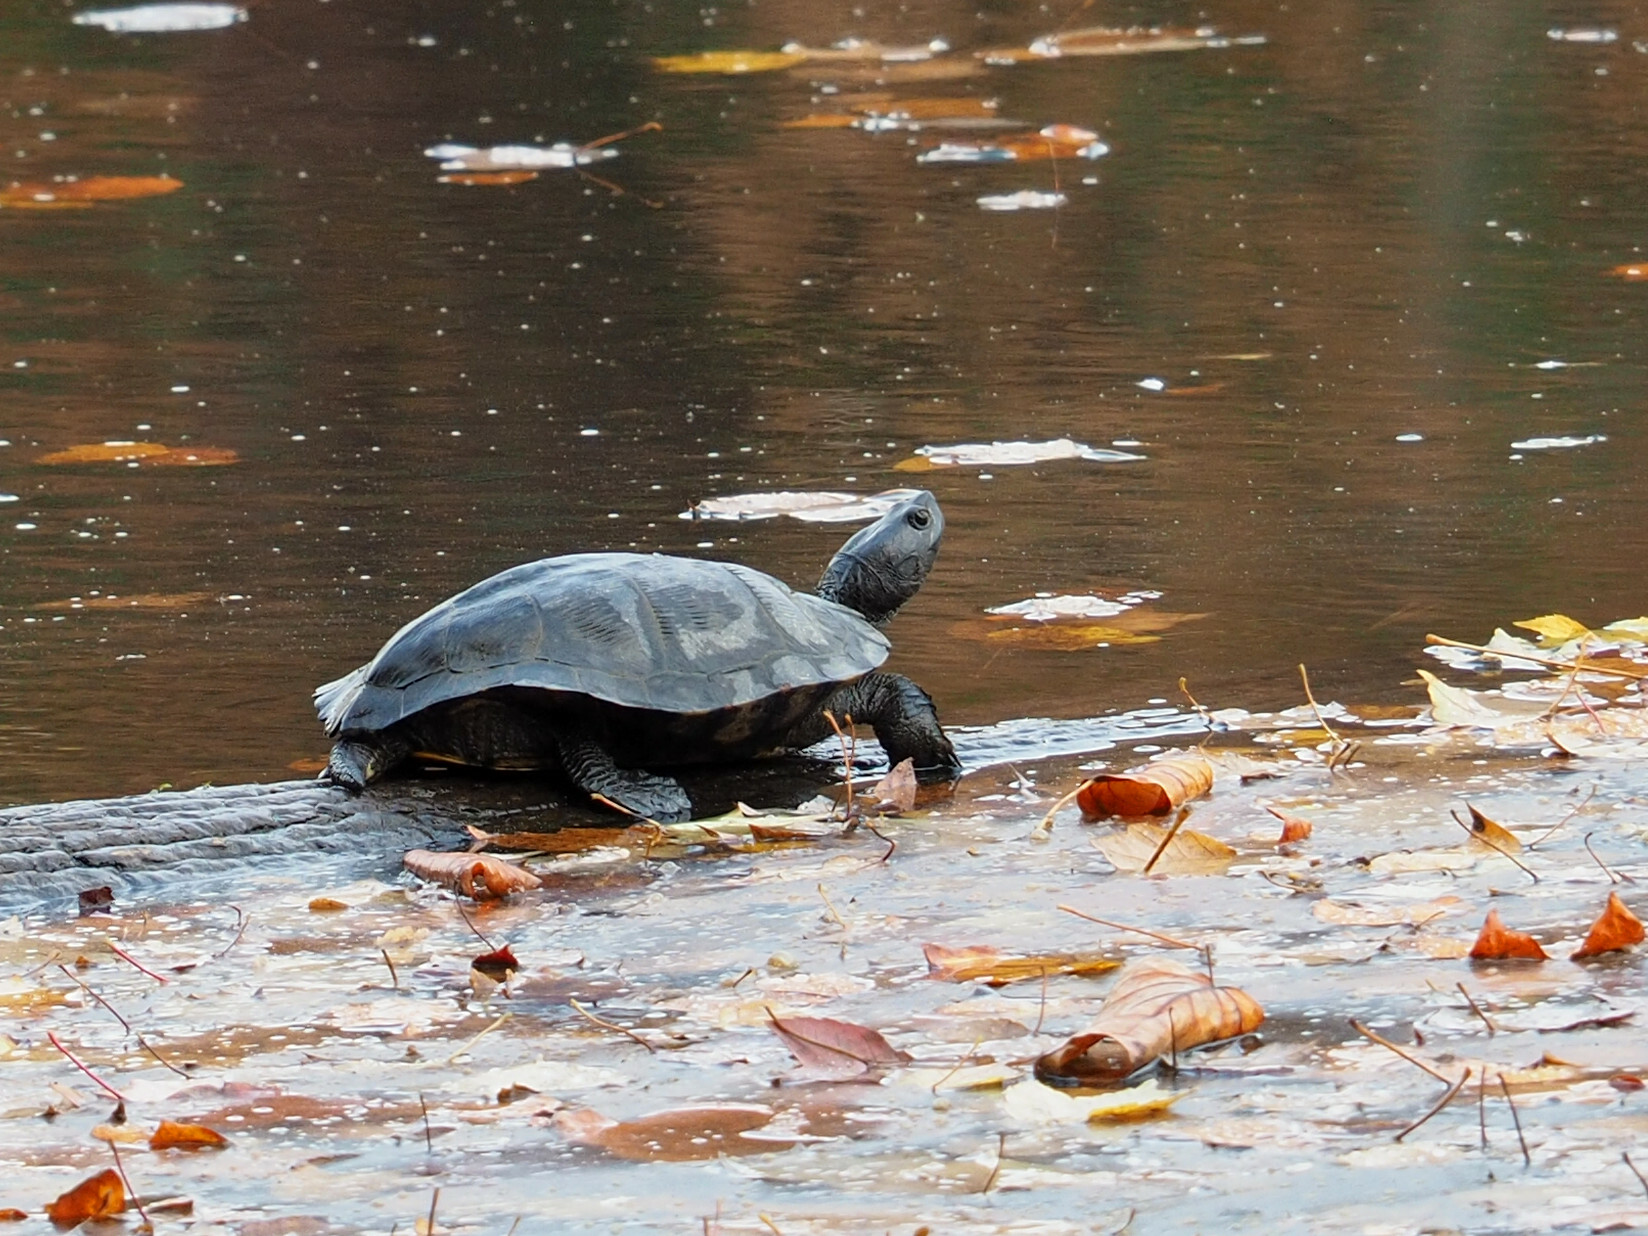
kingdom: Animalia
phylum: Chordata
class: Testudines
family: Emydidae
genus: Trachemys
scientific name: Trachemys scripta
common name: Slider
